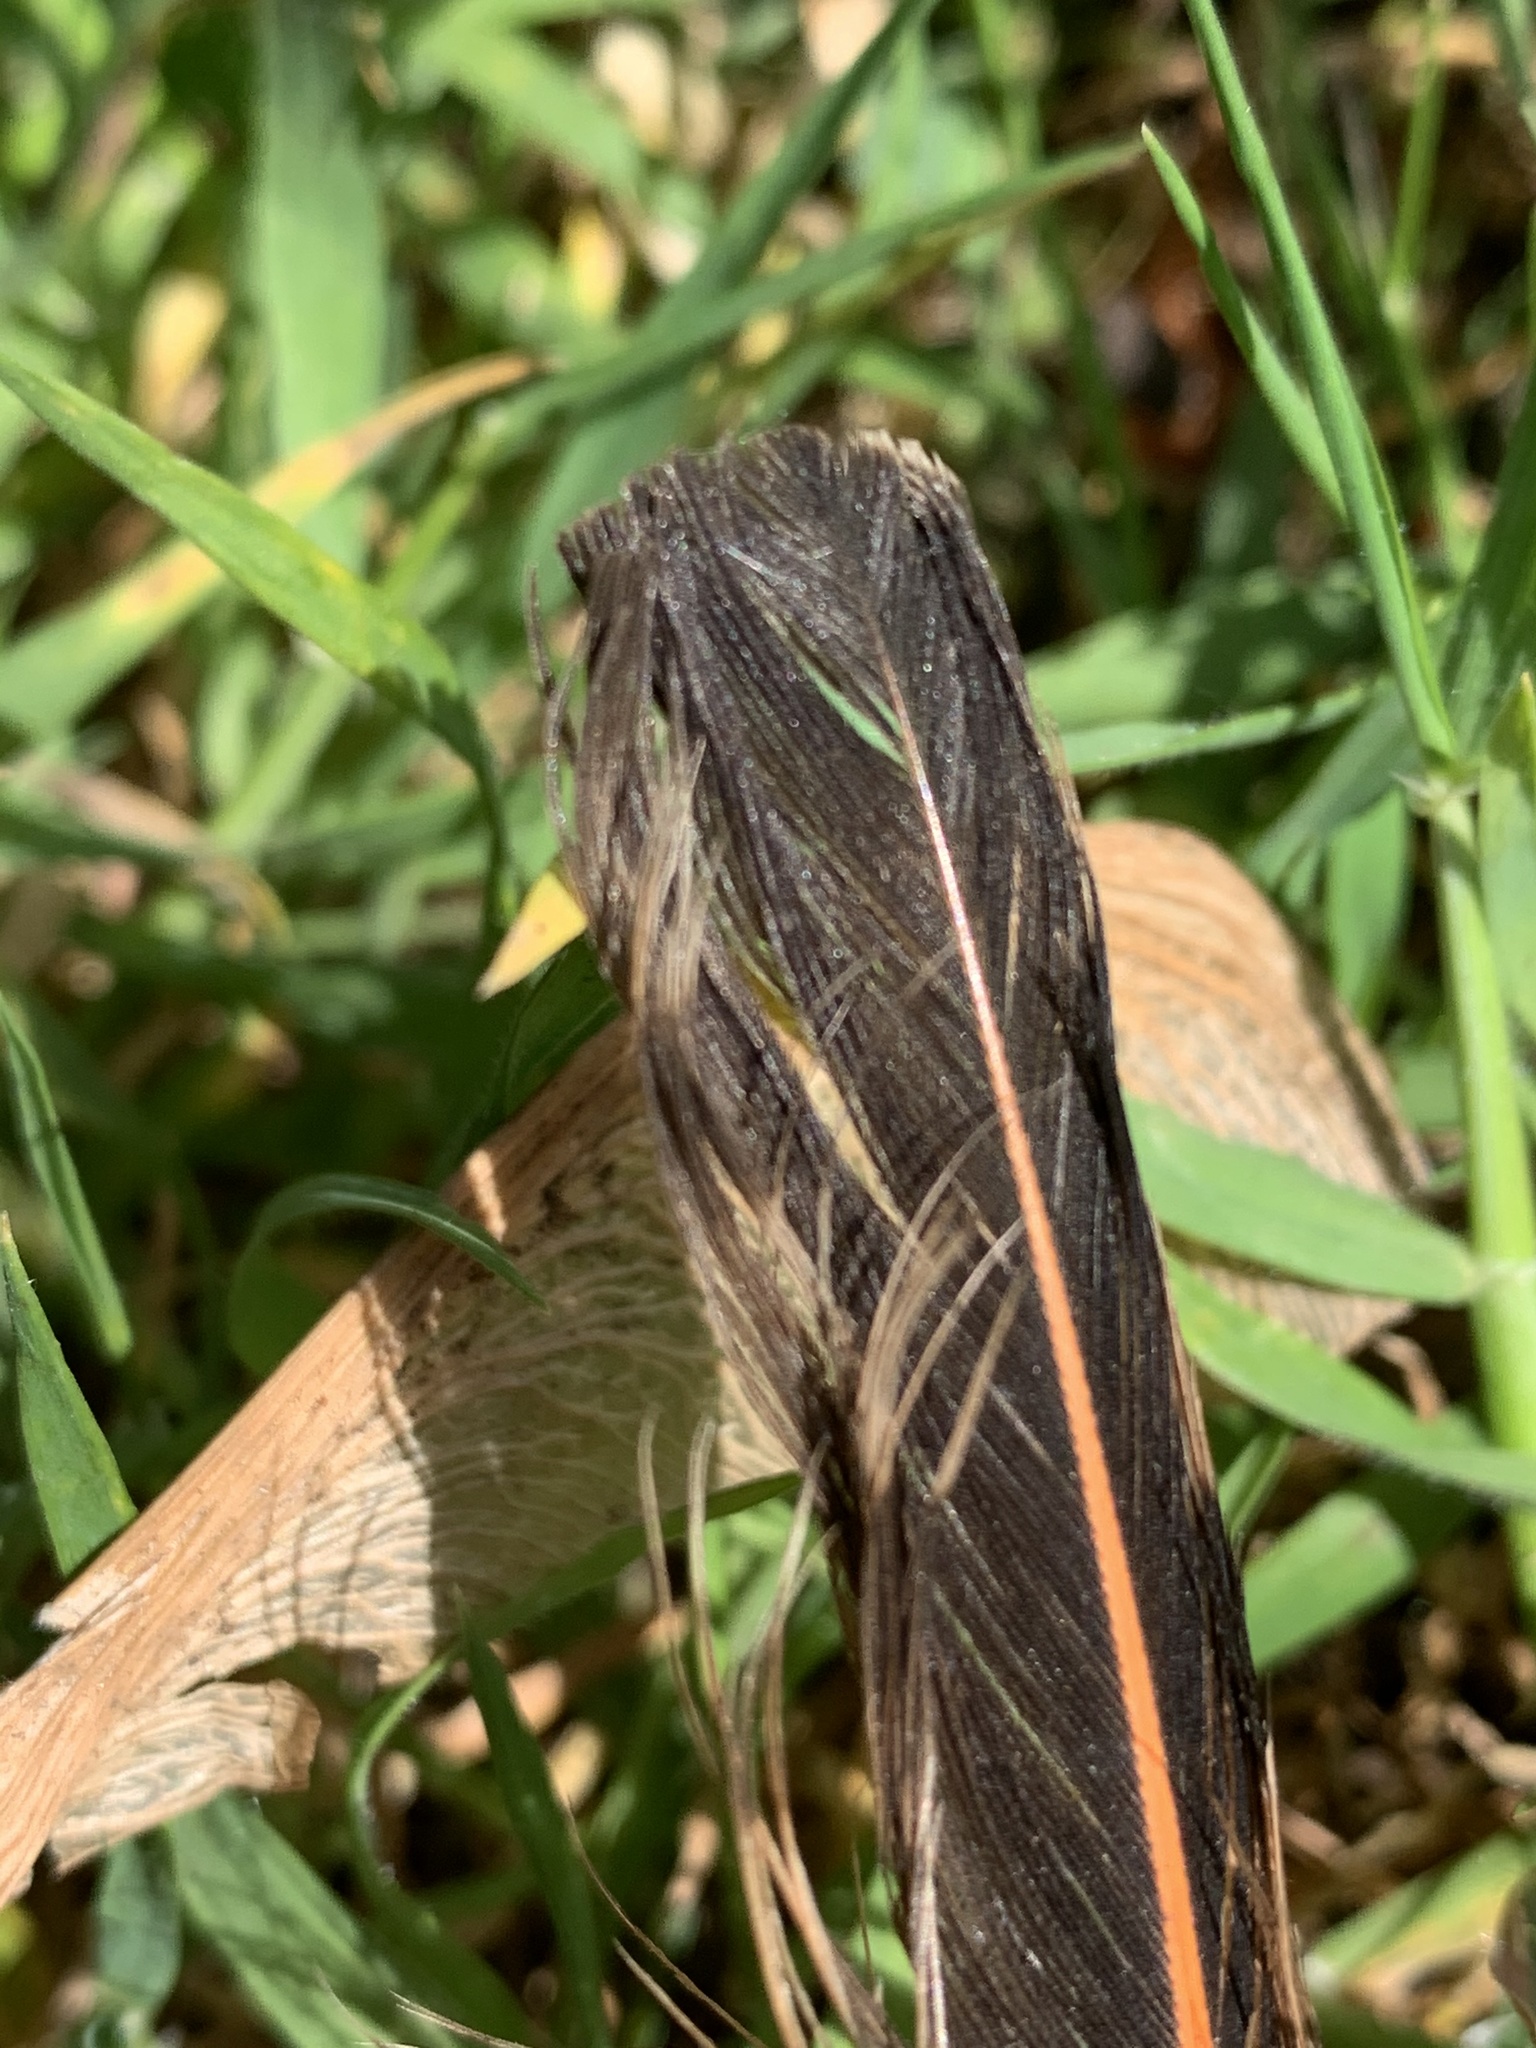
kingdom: Animalia
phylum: Chordata
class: Aves
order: Piciformes
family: Picidae
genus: Colaptes
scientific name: Colaptes auratus
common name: Northern flicker
